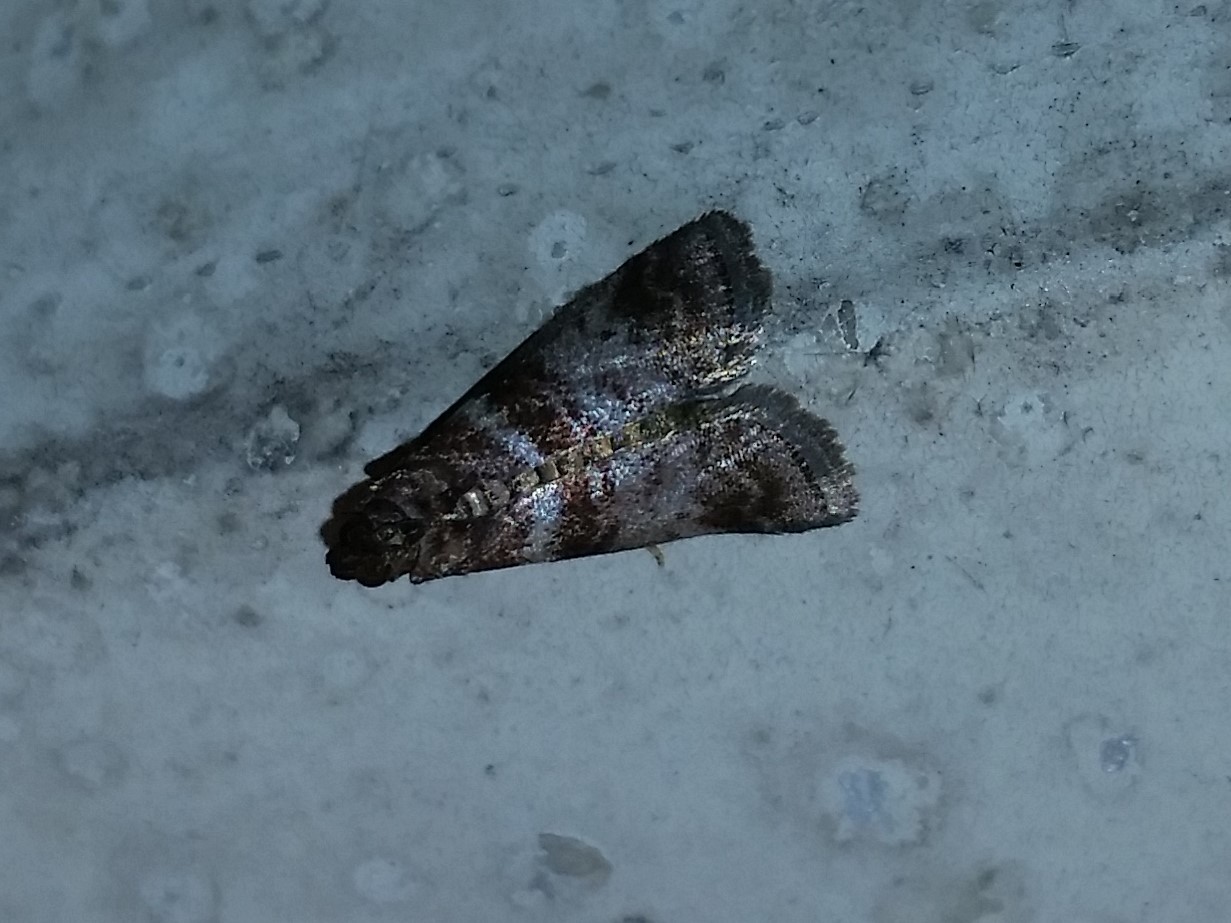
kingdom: Animalia
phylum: Arthropoda
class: Insecta
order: Lepidoptera
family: Pyralidae
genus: Sciota
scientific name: Sciota uvinella
